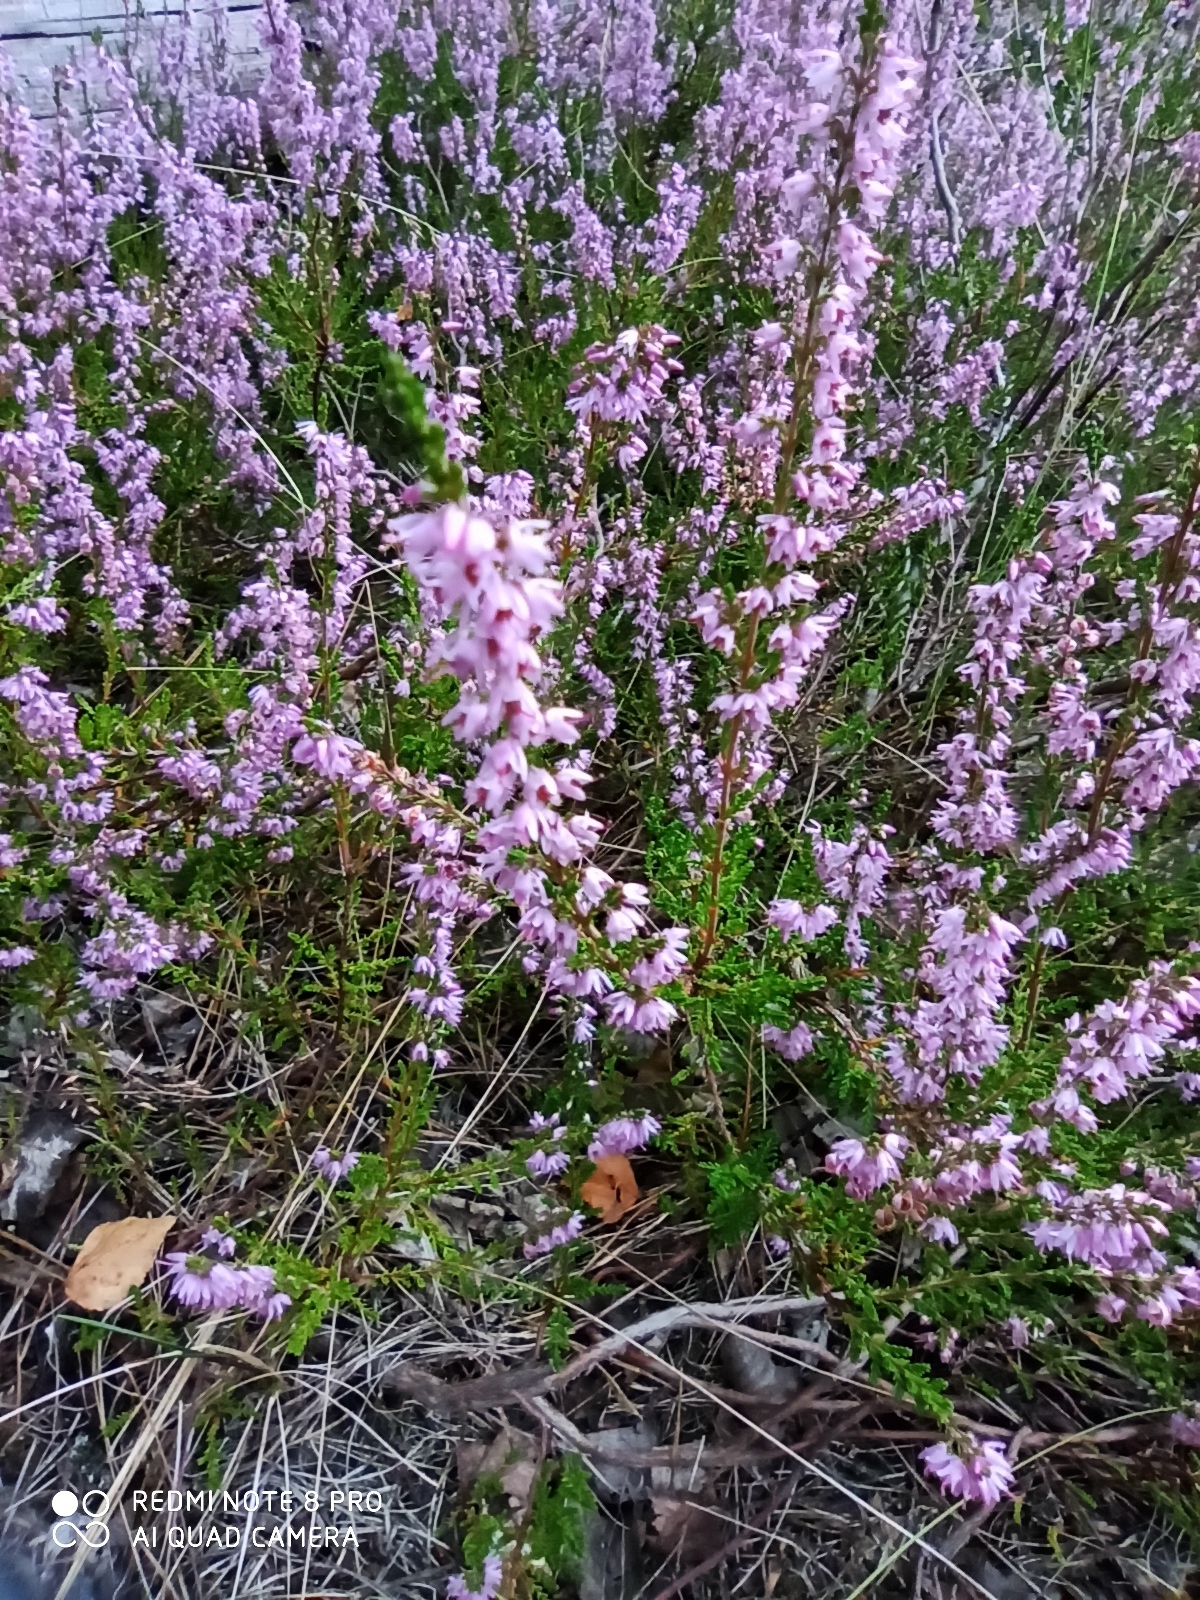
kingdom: Plantae
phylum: Tracheophyta
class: Magnoliopsida
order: Ericales
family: Ericaceae
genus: Calluna
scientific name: Calluna vulgaris
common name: Heather
